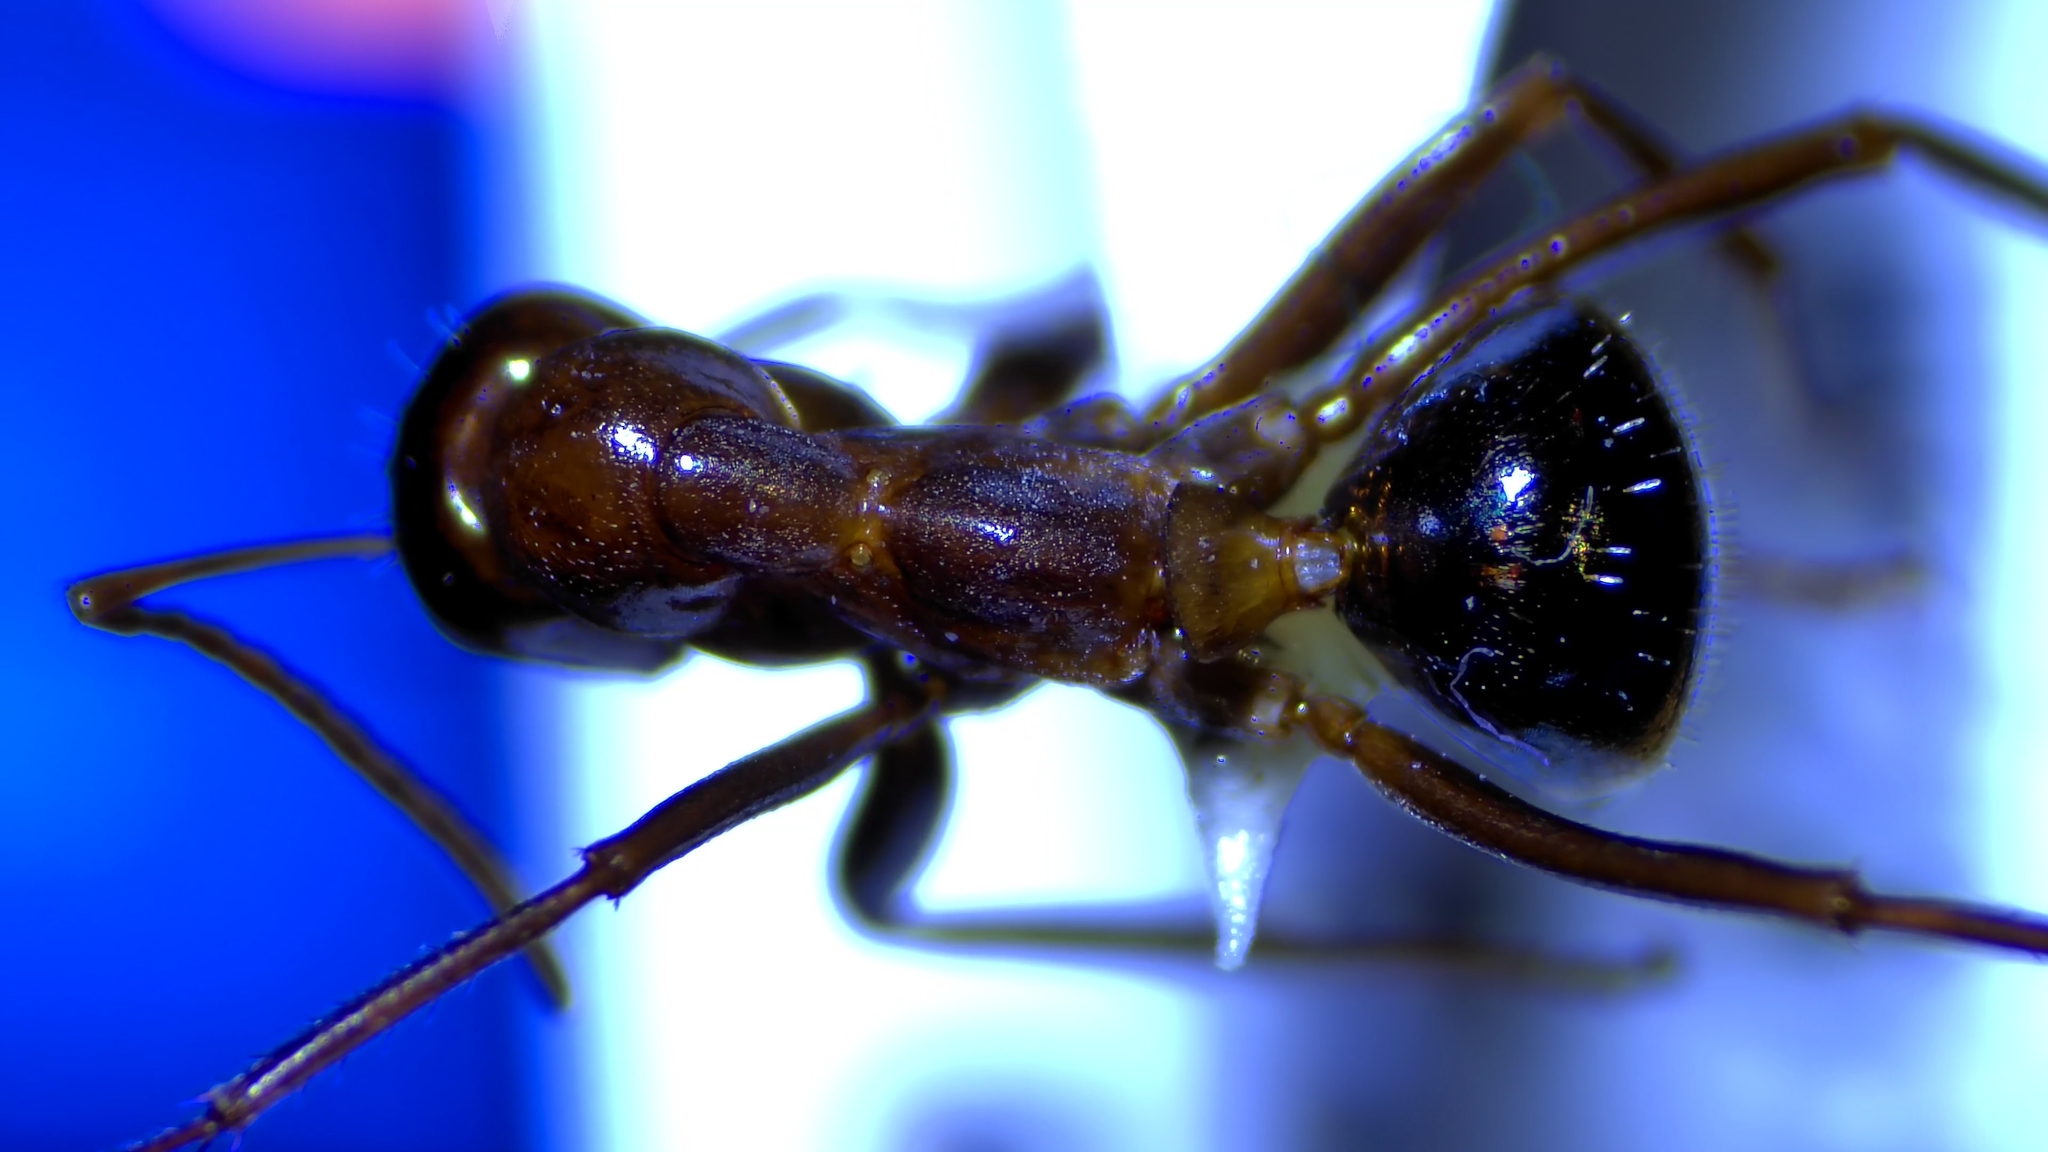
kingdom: Animalia
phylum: Arthropoda
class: Insecta
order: Hymenoptera
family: Formicidae
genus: Formica
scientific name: Formica pallidefulva
